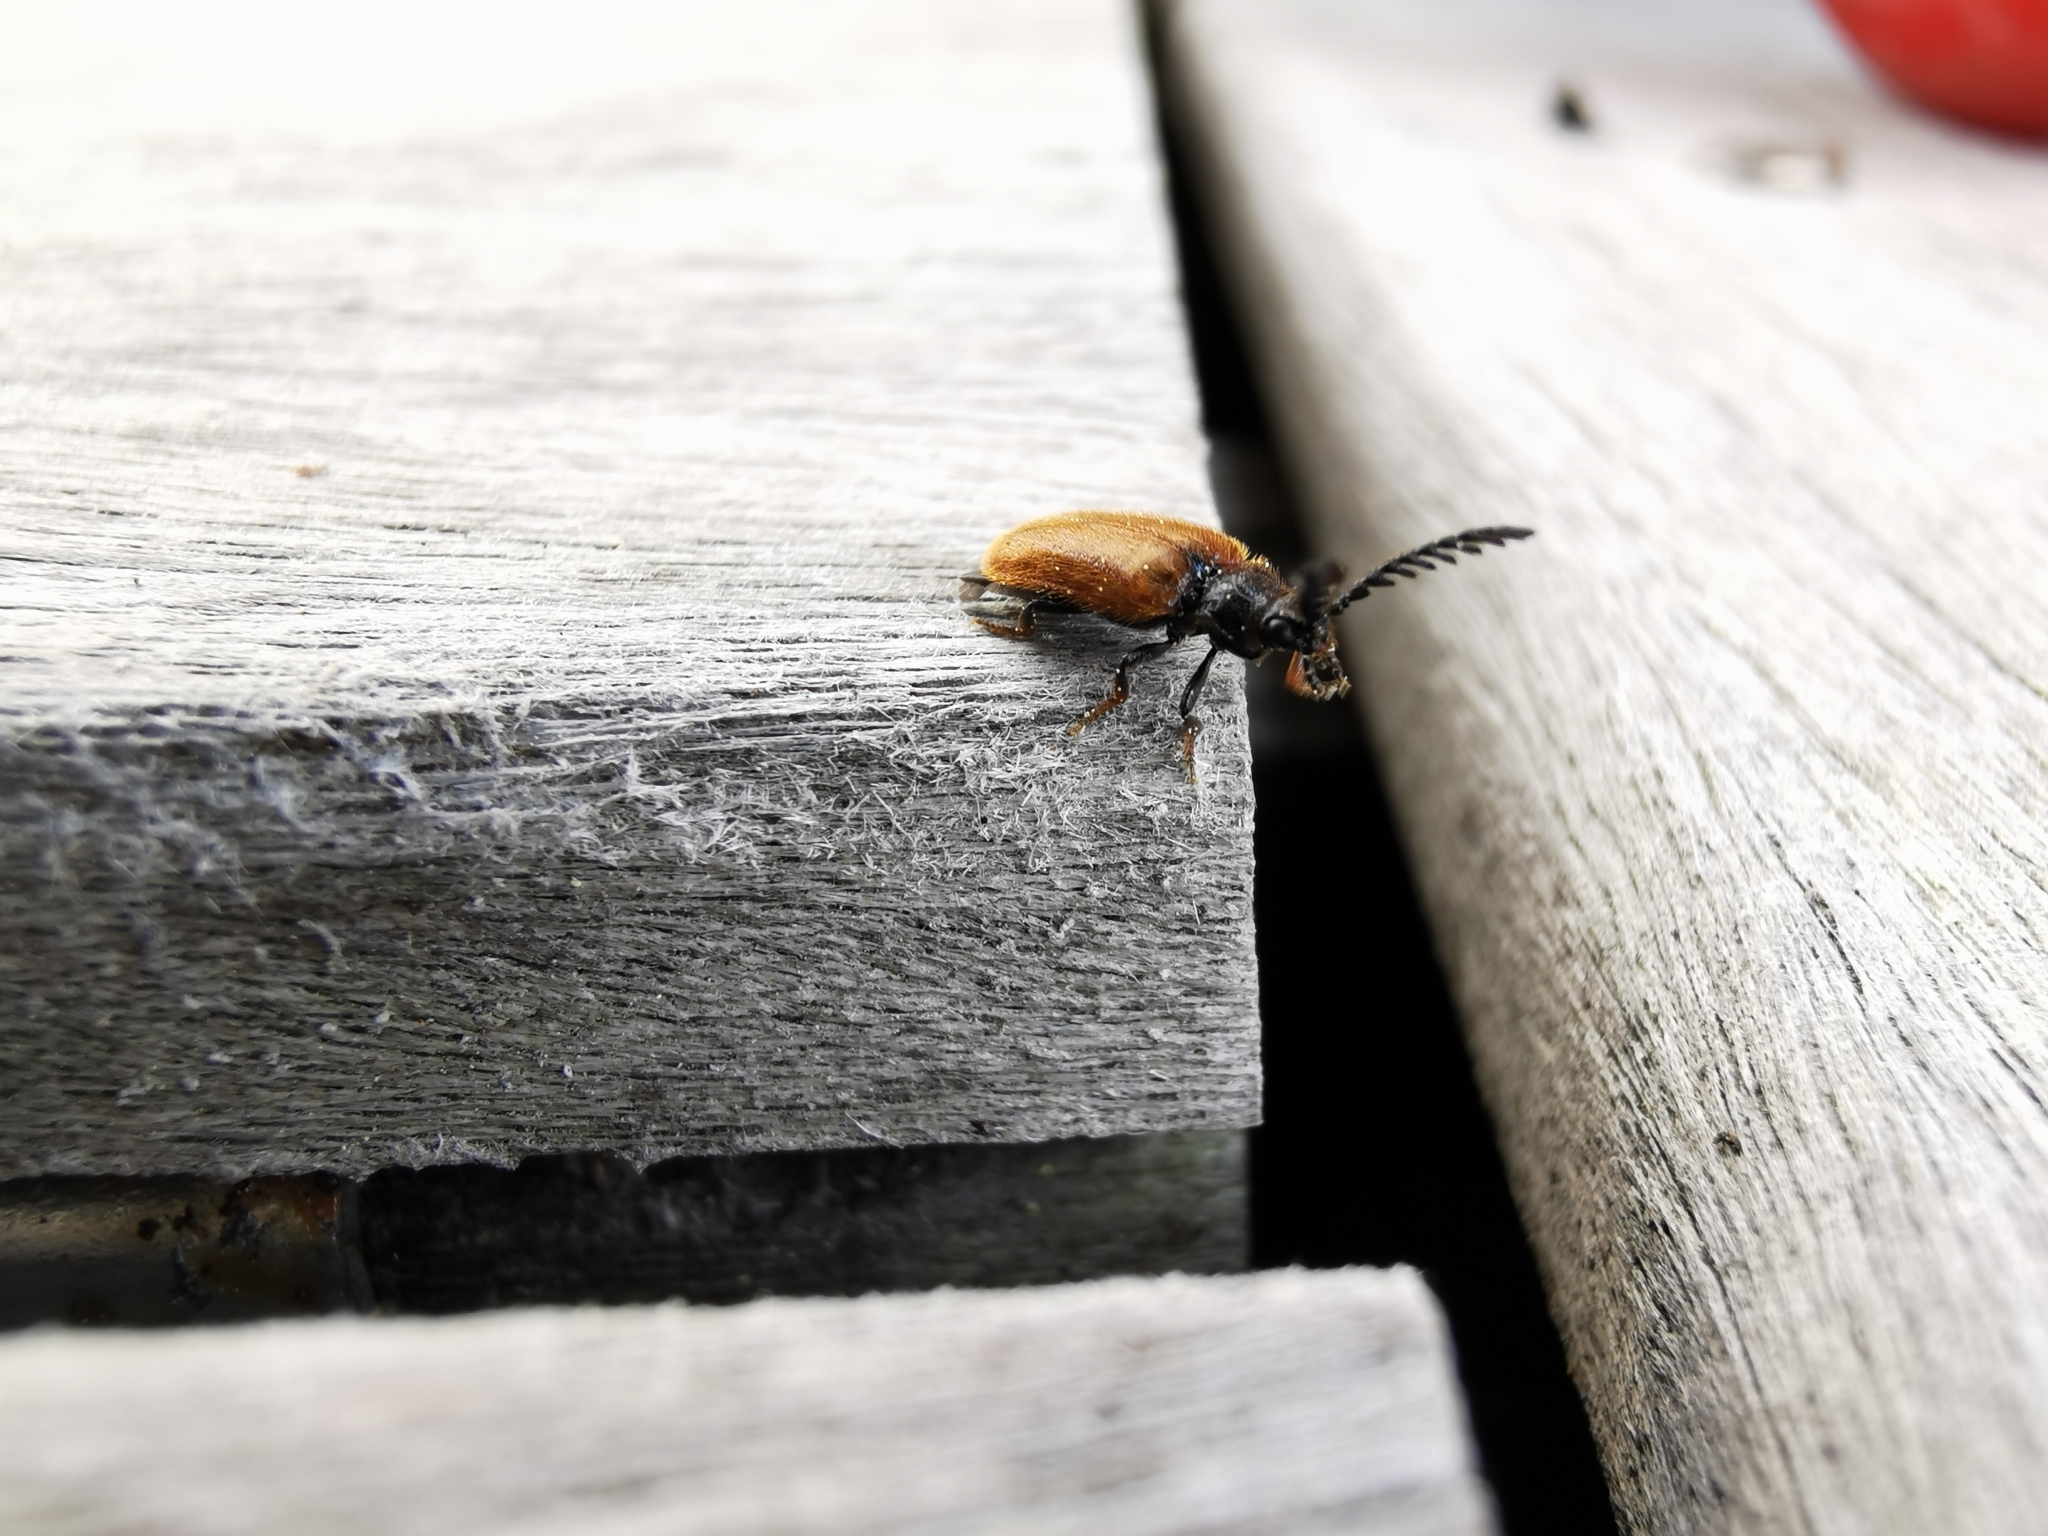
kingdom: Animalia
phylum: Arthropoda
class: Insecta
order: Coleoptera
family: Drilidae
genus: Drilus
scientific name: Drilus flavescens
